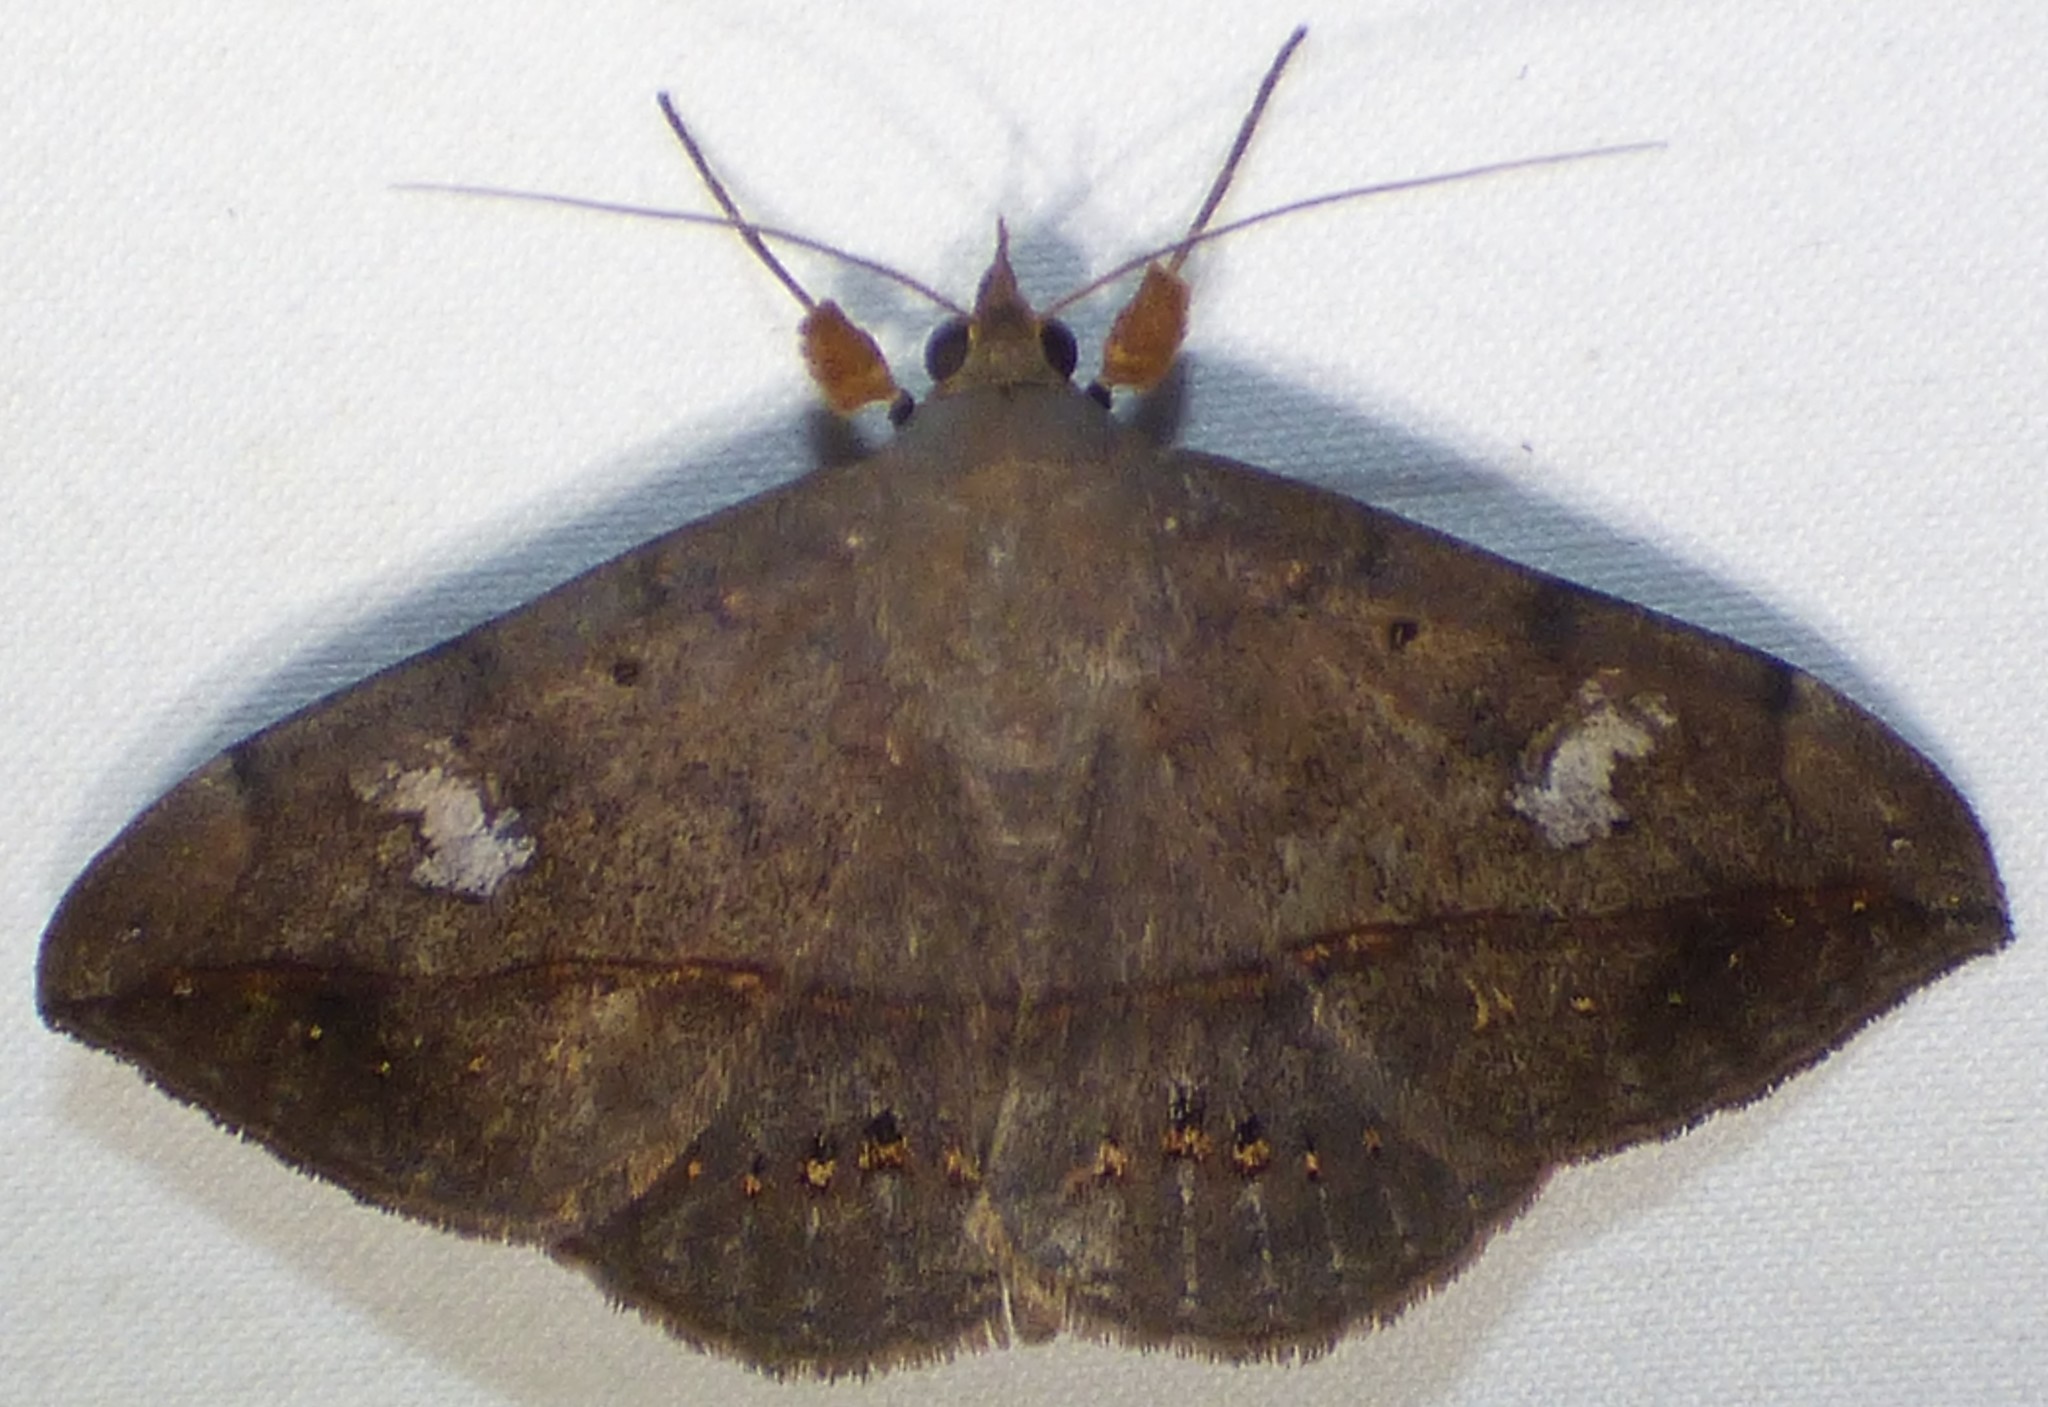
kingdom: Animalia
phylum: Arthropoda
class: Insecta
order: Lepidoptera
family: Erebidae
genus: Anticarsia
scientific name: Anticarsia gemmatalis
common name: Cutworm moth
